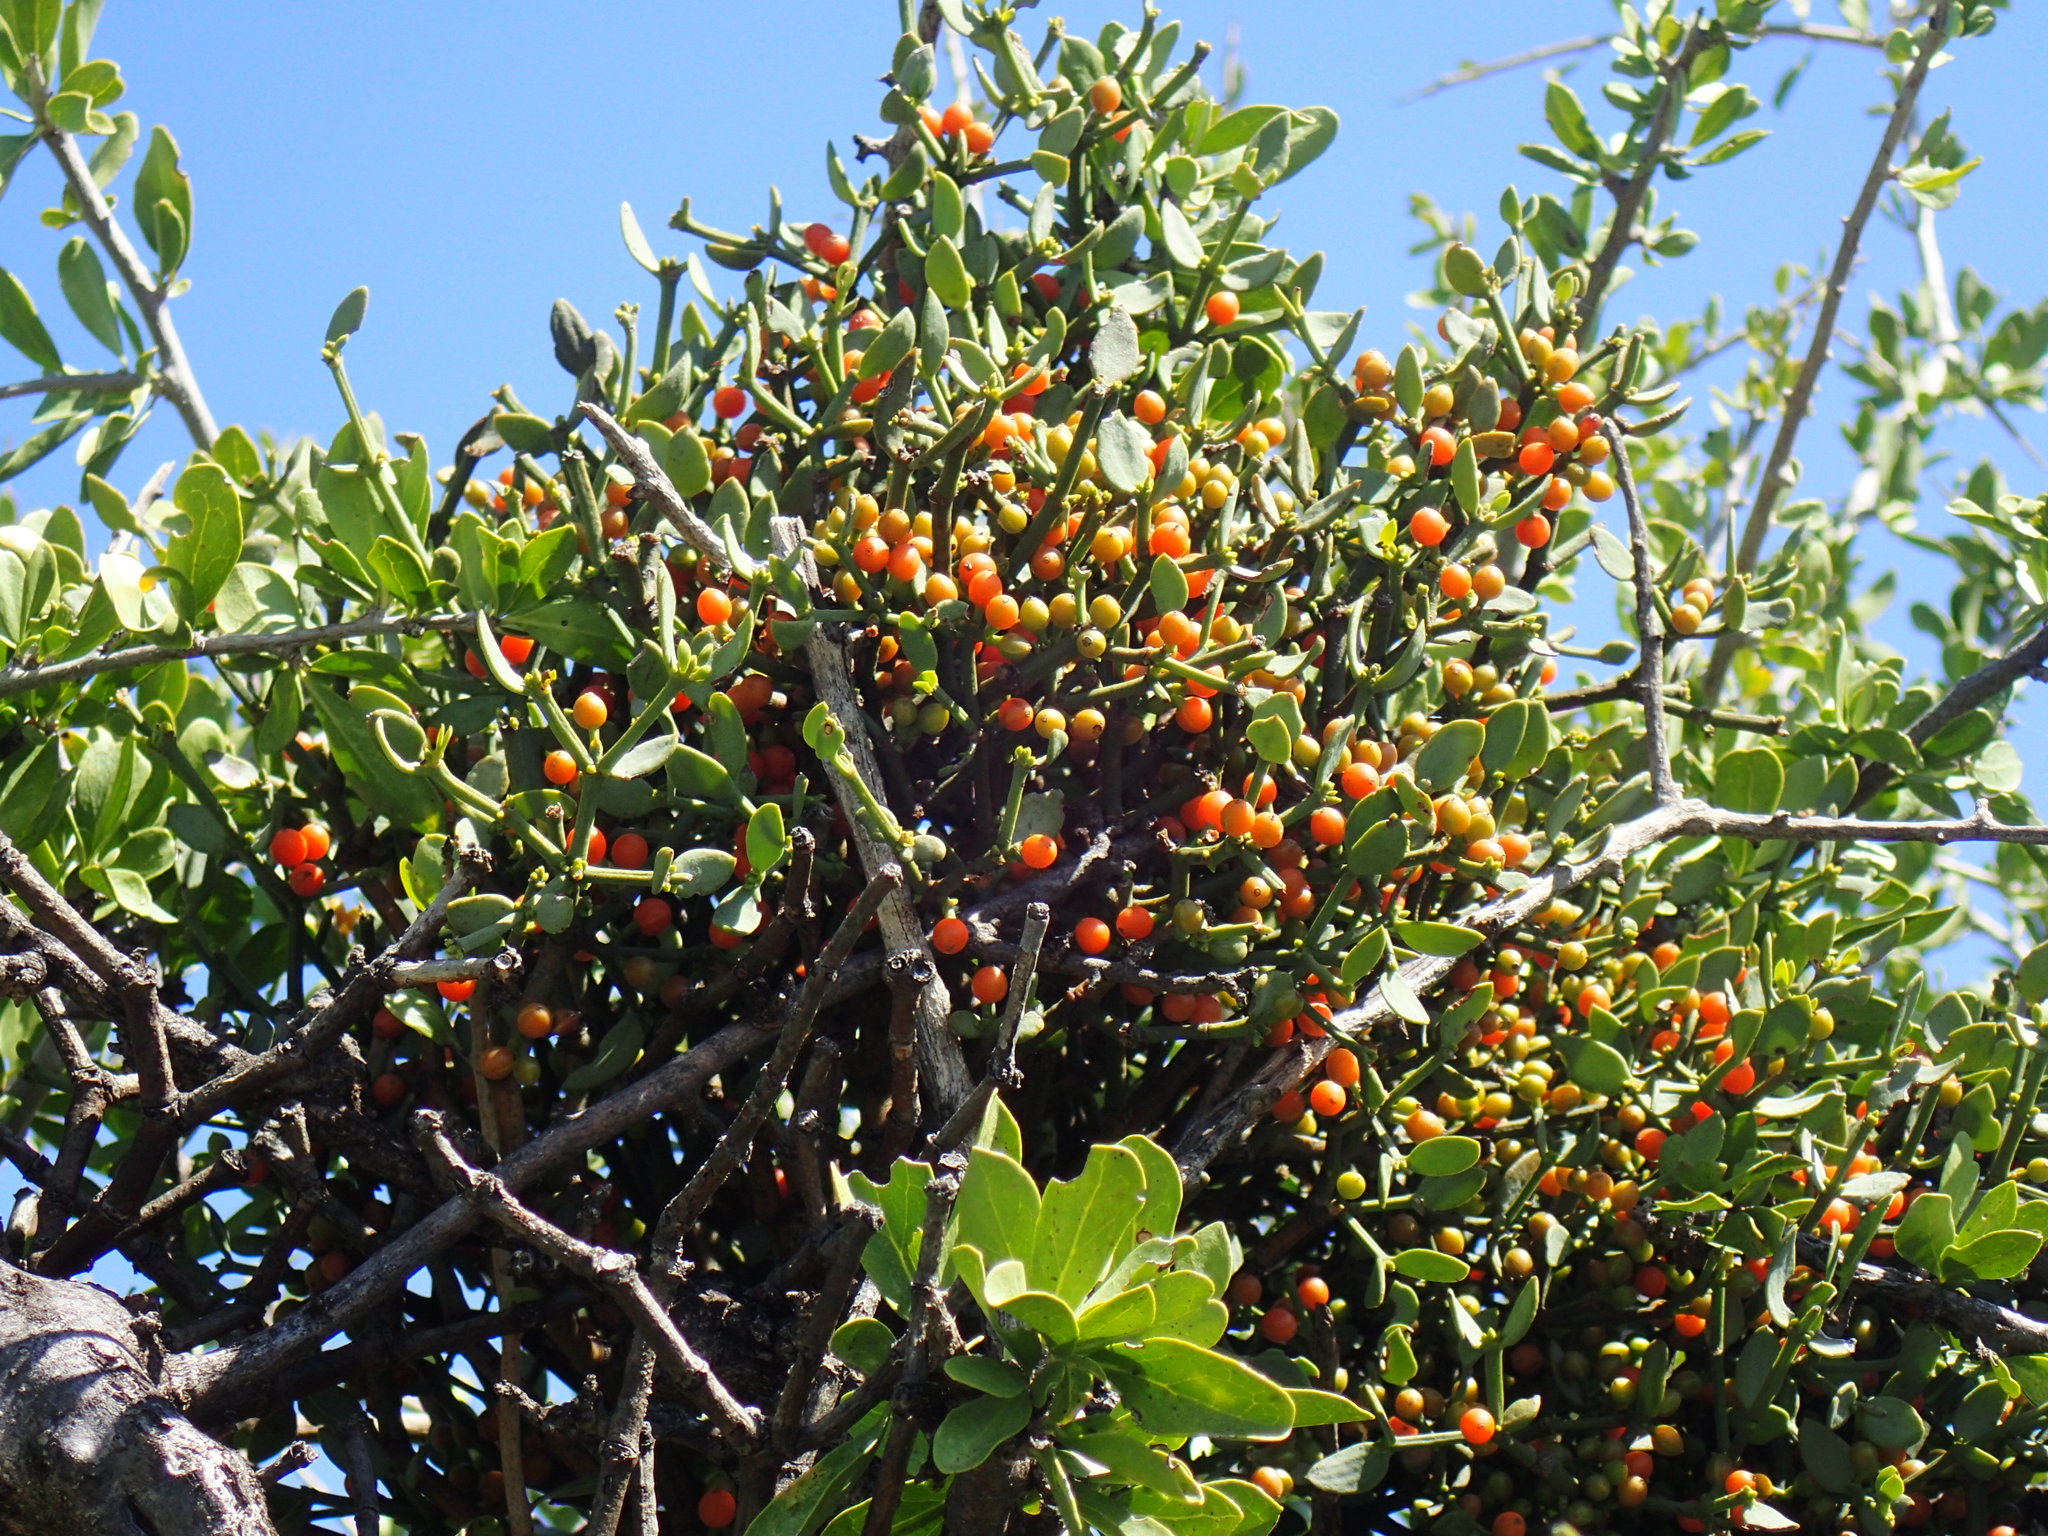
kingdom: Plantae
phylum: Tracheophyta
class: Magnoliopsida
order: Santalales
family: Viscaceae
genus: Viscum
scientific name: Viscum rotundifolium
